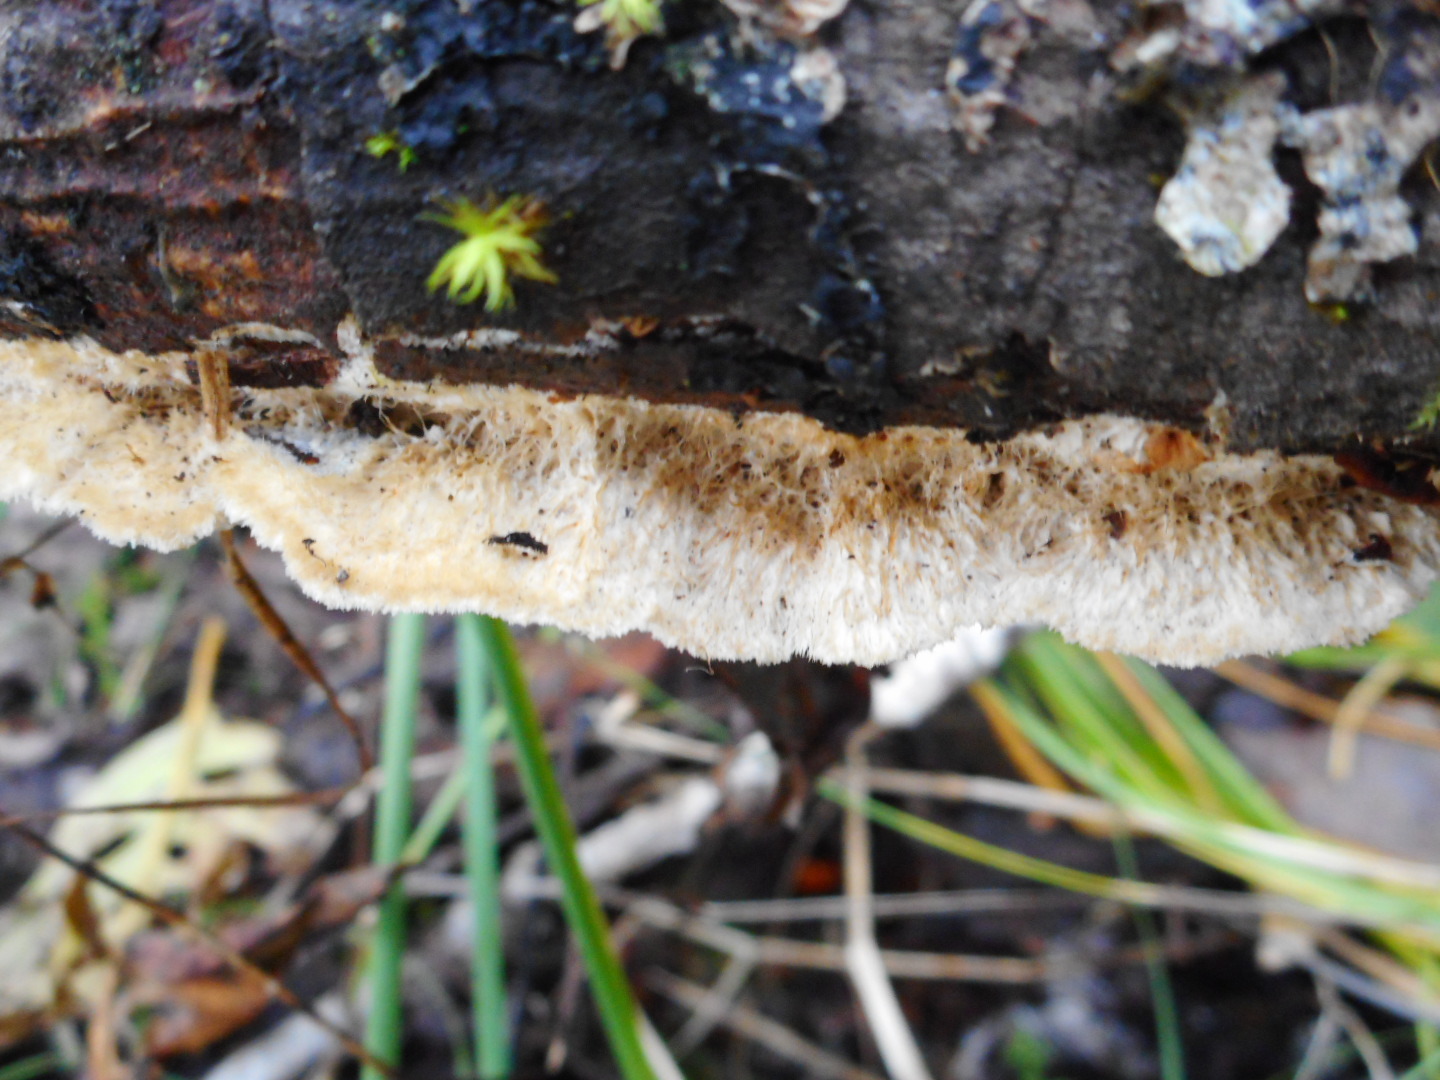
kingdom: Fungi
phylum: Basidiomycota
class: Agaricomycetes
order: Polyporales
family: Polyporaceae
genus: Trametes
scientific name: Trametes trogii
